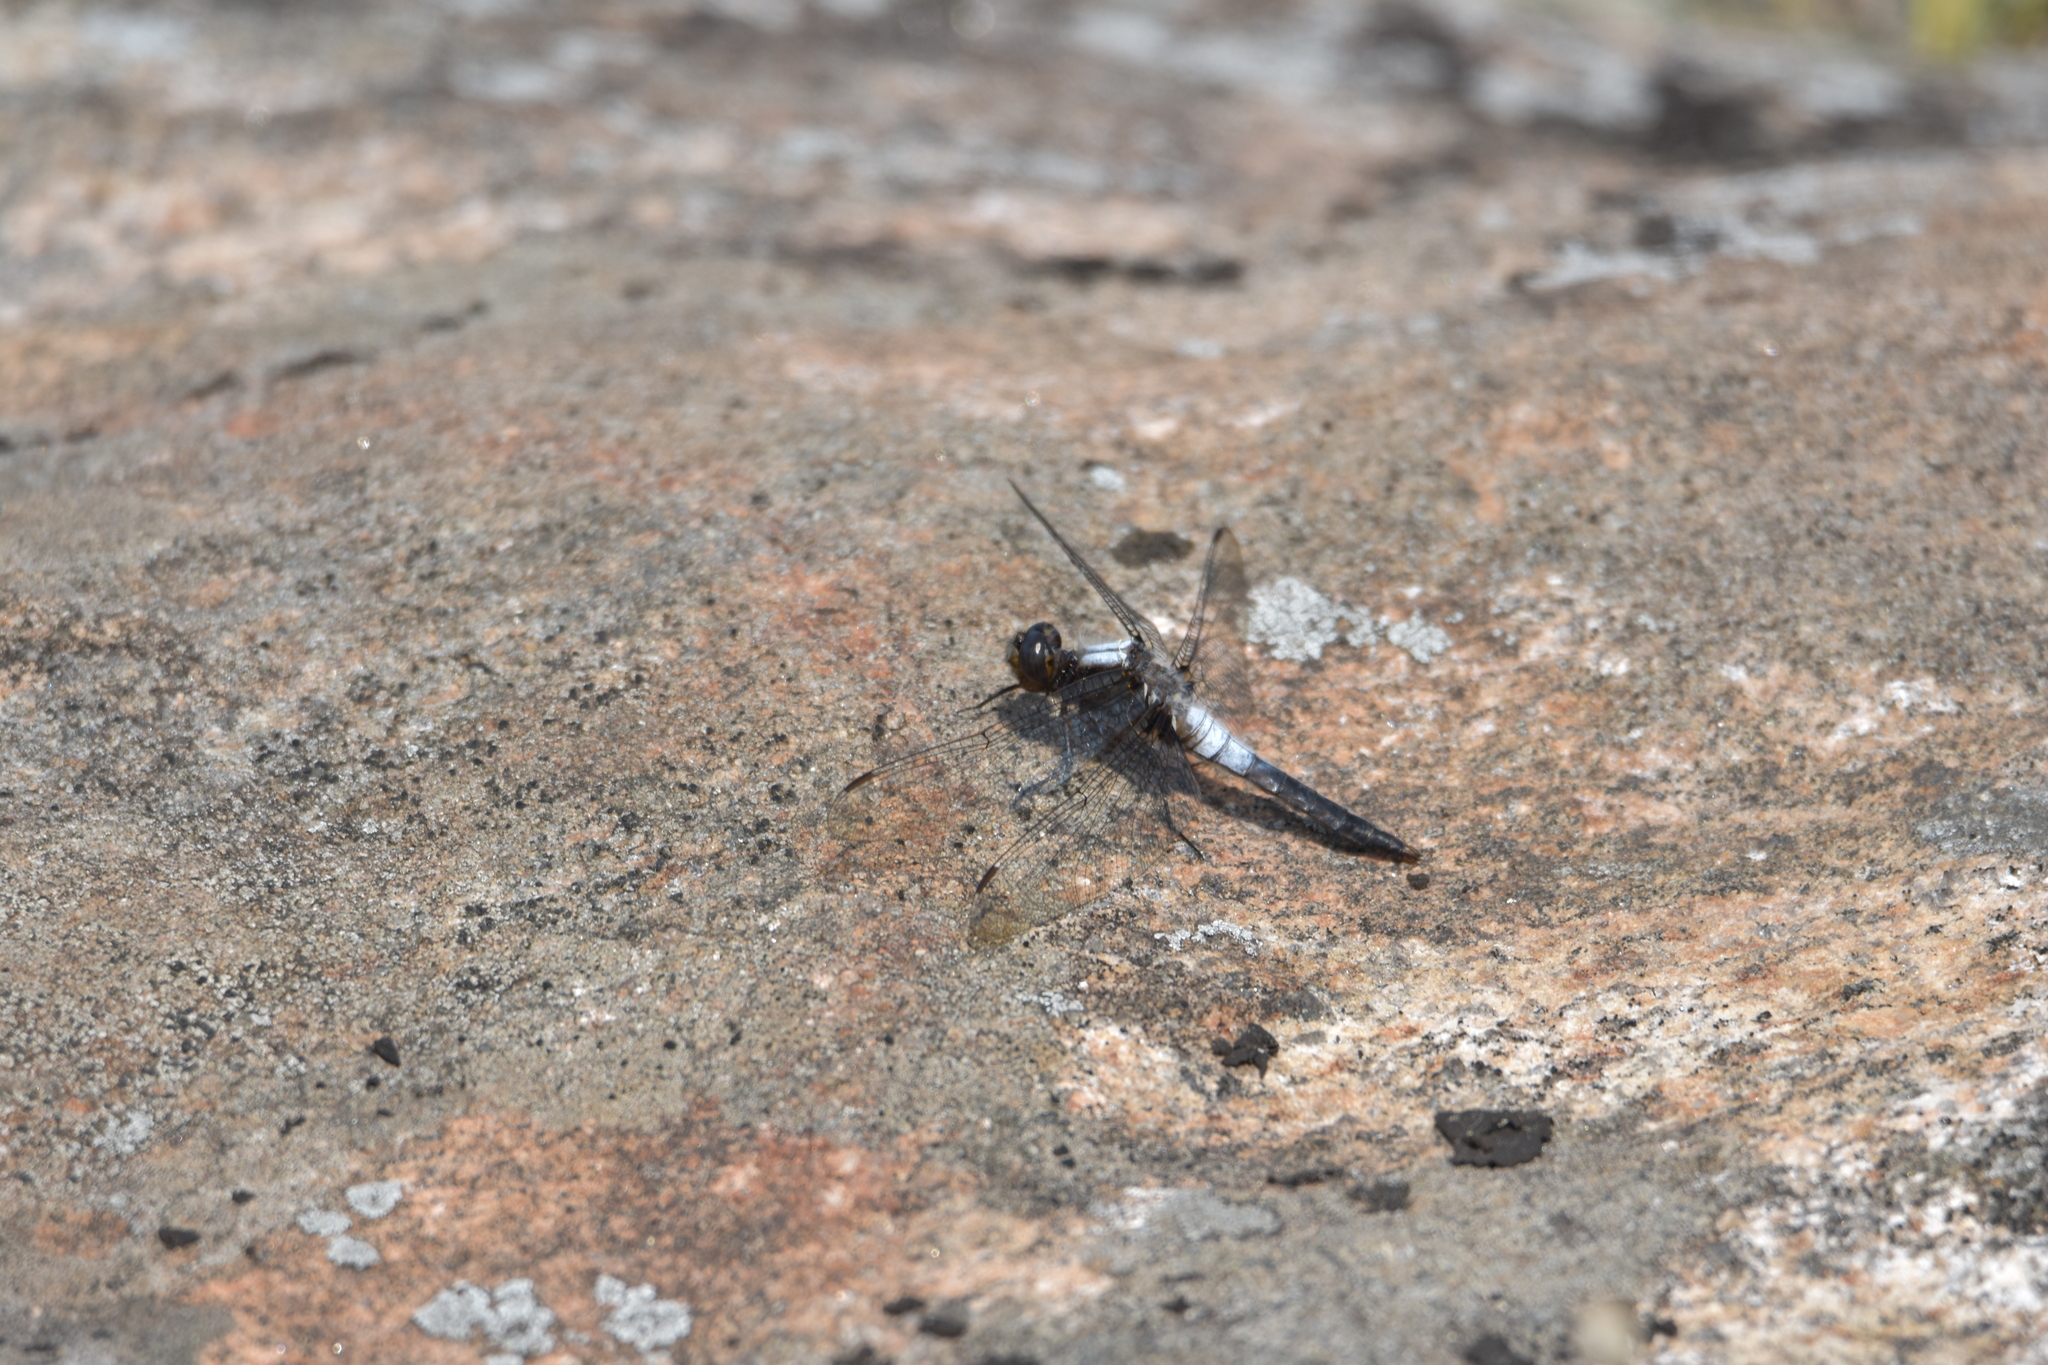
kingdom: Animalia
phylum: Arthropoda
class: Insecta
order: Odonata
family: Libellulidae
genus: Ladona
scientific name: Ladona julia
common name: Chalk-fronted corporal
